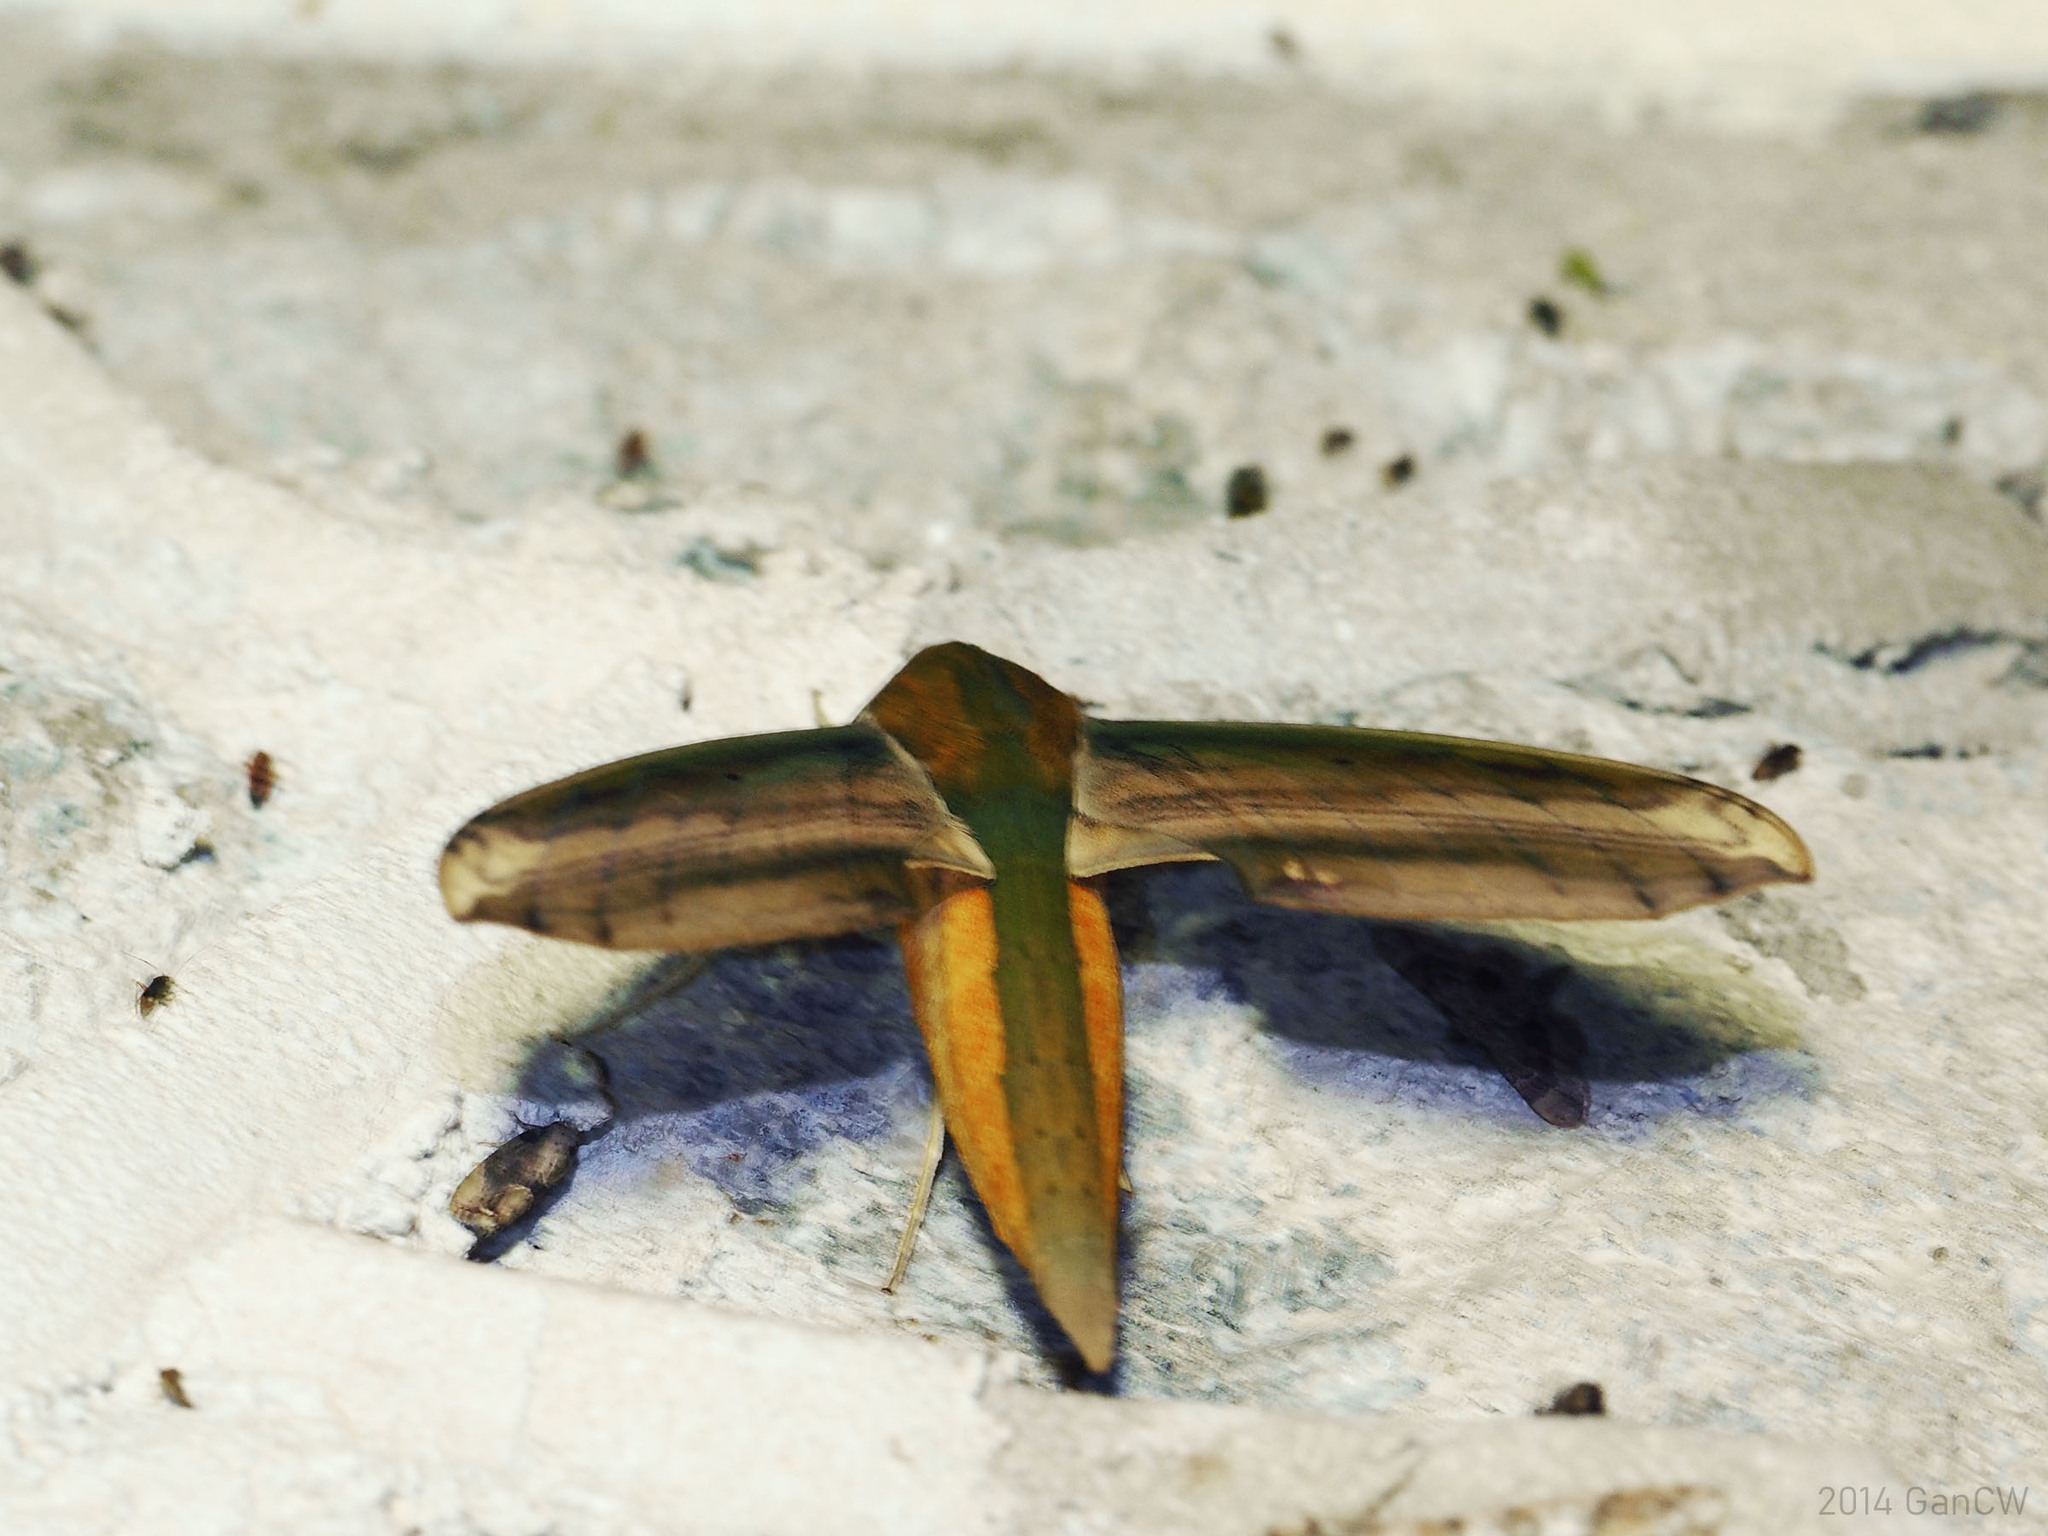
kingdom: Animalia
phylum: Arthropoda
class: Insecta
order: Lepidoptera
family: Sphingidae
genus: Theretra
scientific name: Theretra nessus
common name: Yam hawk moth
